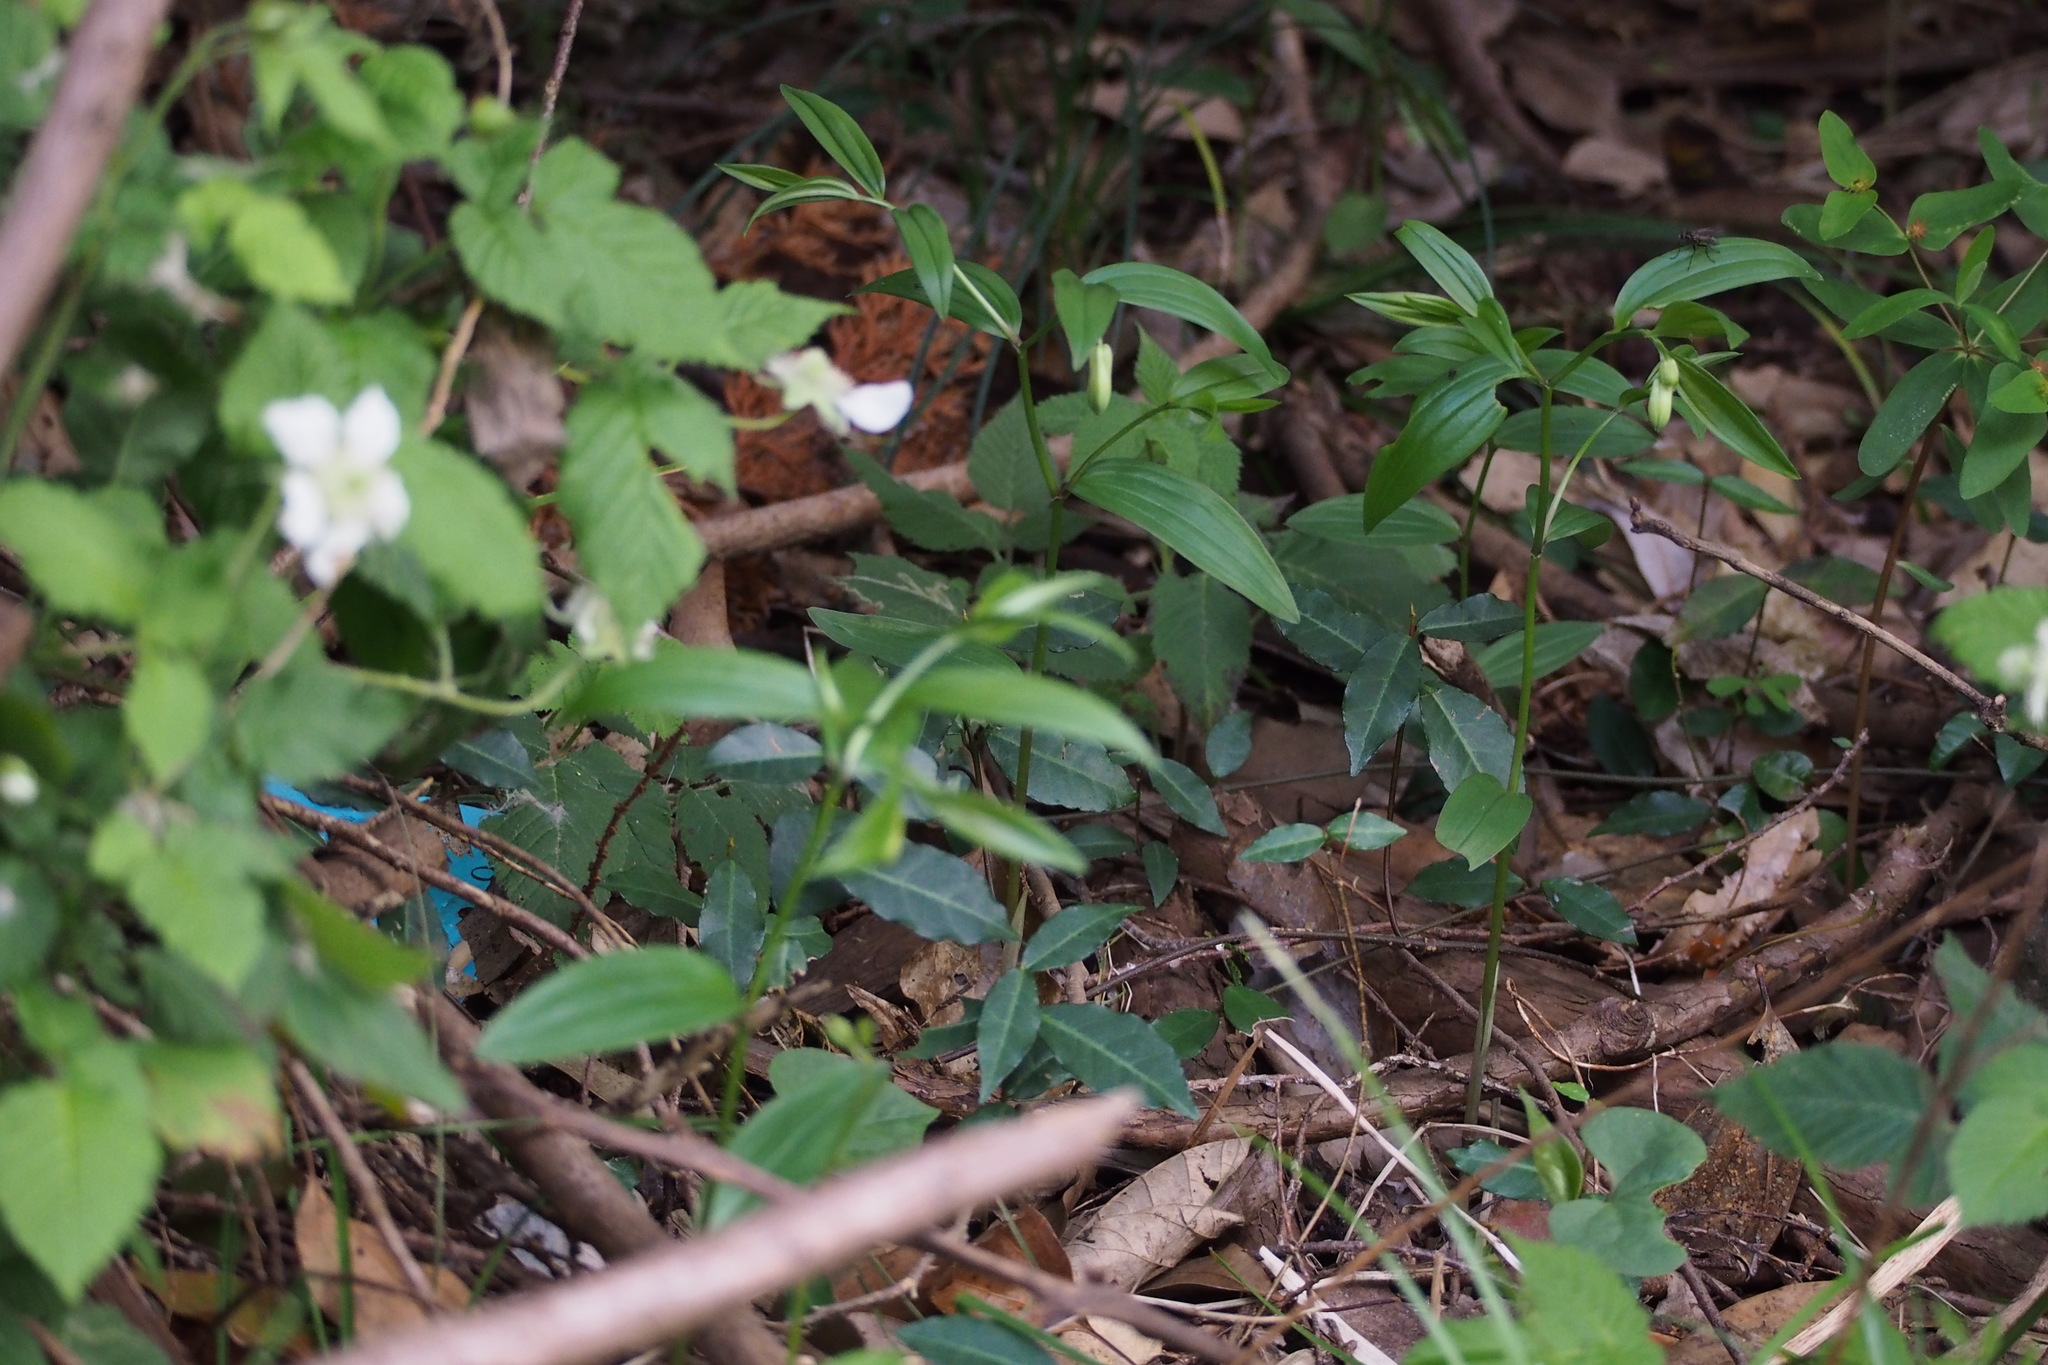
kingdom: Plantae
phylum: Tracheophyta
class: Liliopsida
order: Liliales
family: Colchicaceae
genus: Disporum
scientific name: Disporum sessile
